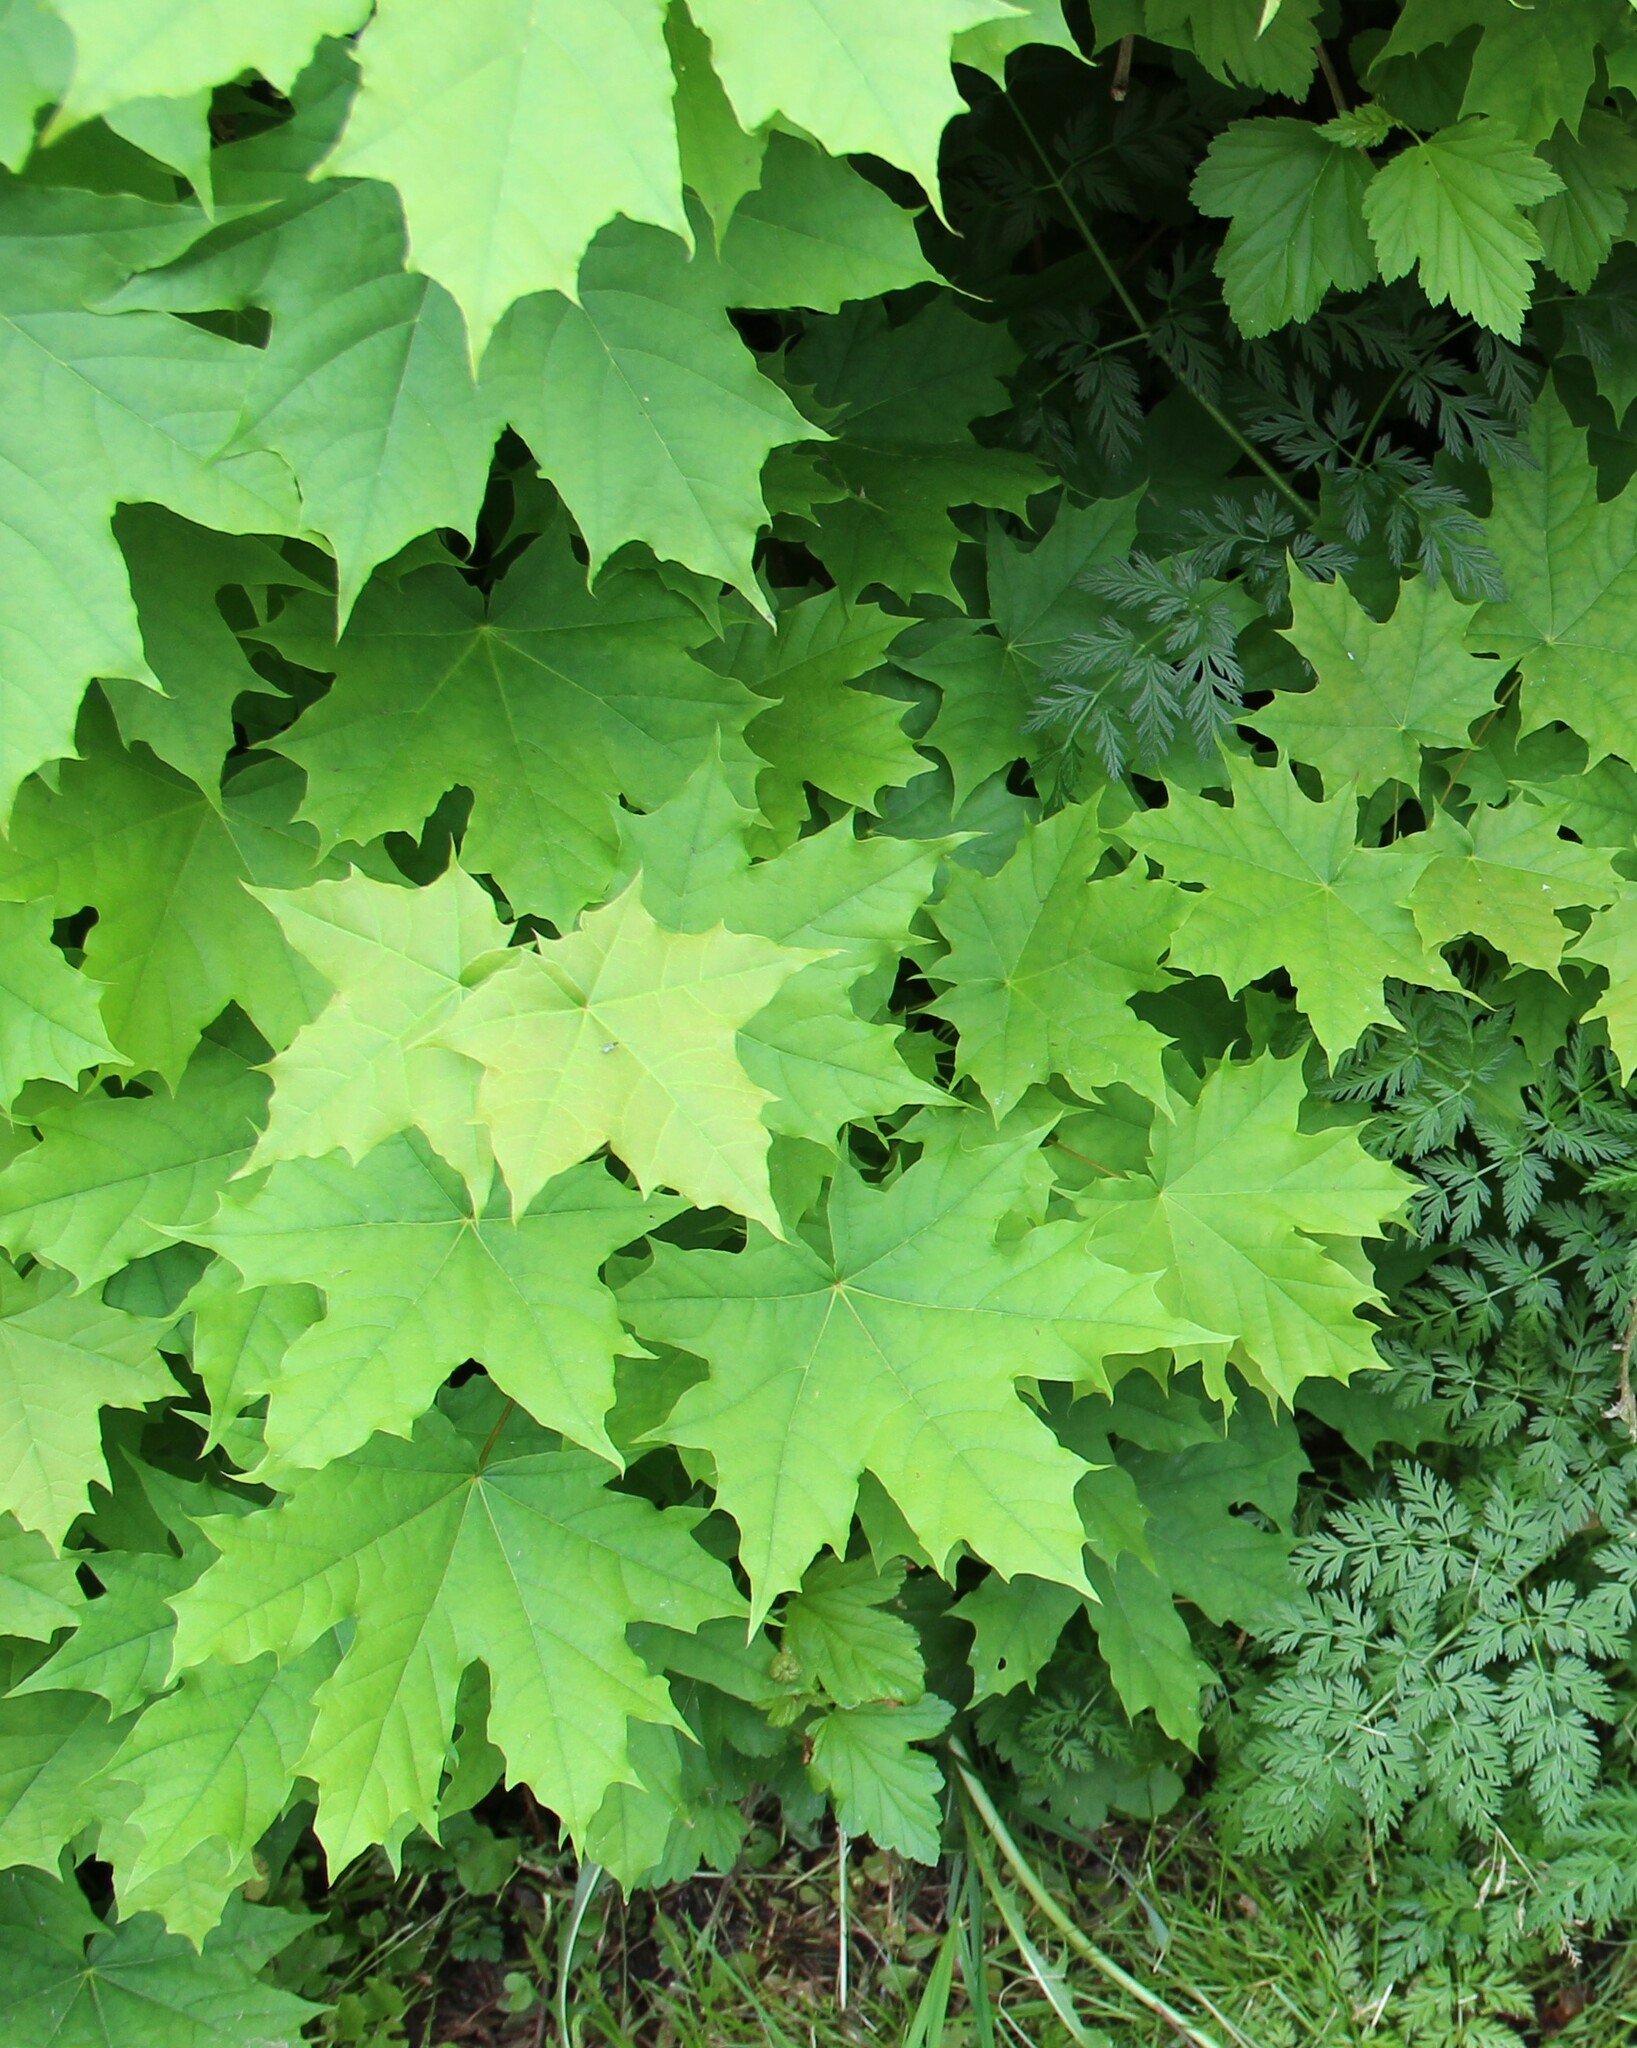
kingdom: Plantae
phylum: Tracheophyta
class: Magnoliopsida
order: Sapindales
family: Sapindaceae
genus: Acer
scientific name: Acer platanoides
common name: Norway maple
